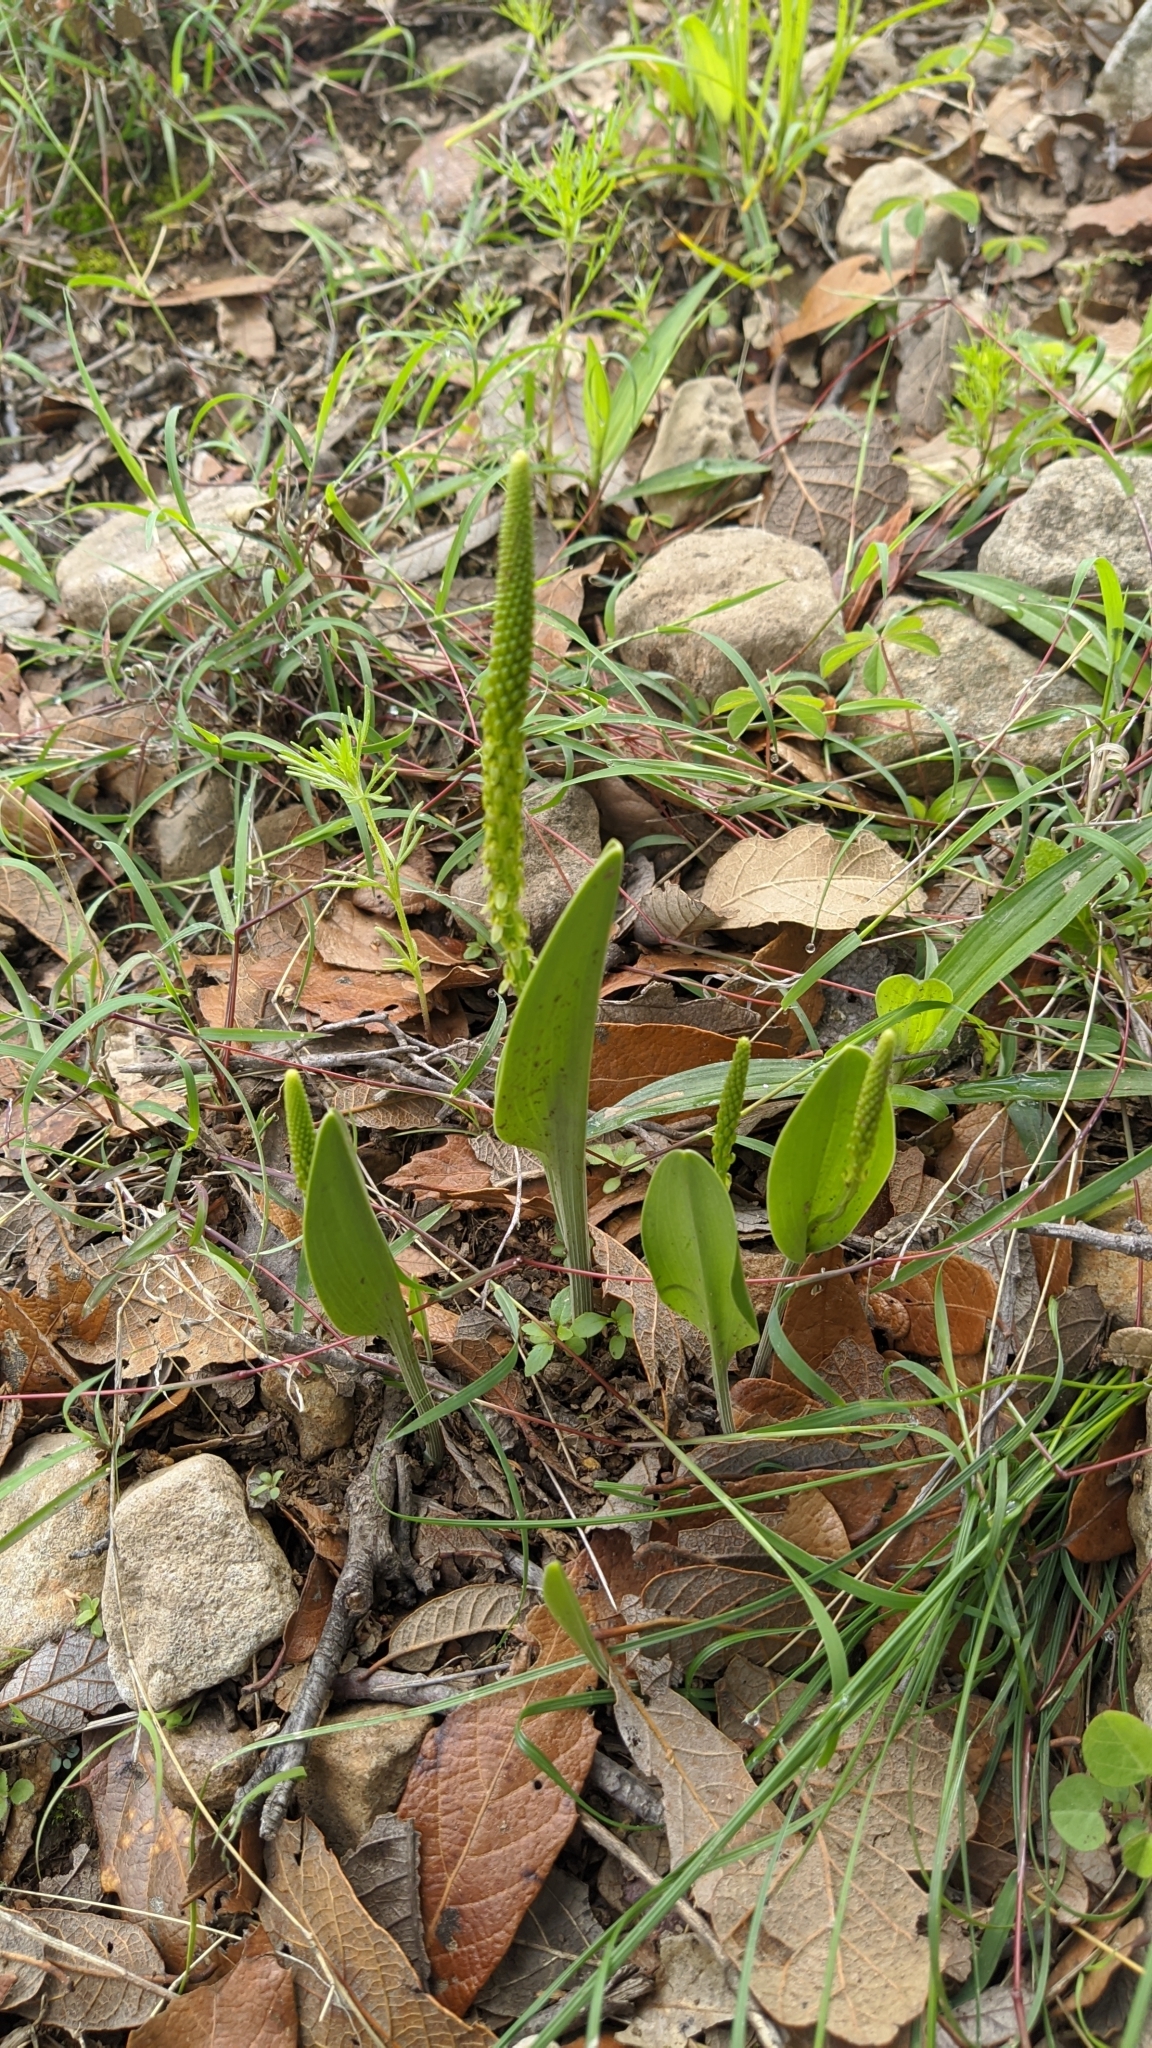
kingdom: Plantae
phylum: Tracheophyta
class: Liliopsida
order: Asparagales
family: Orchidaceae
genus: Malaxis
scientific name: Malaxis streptopetala
